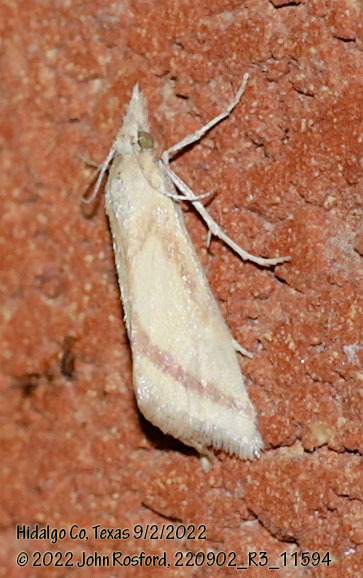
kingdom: Animalia
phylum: Arthropoda
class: Insecta
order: Lepidoptera
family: Crambidae
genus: Microtheoris
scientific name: Microtheoris vibicalis
